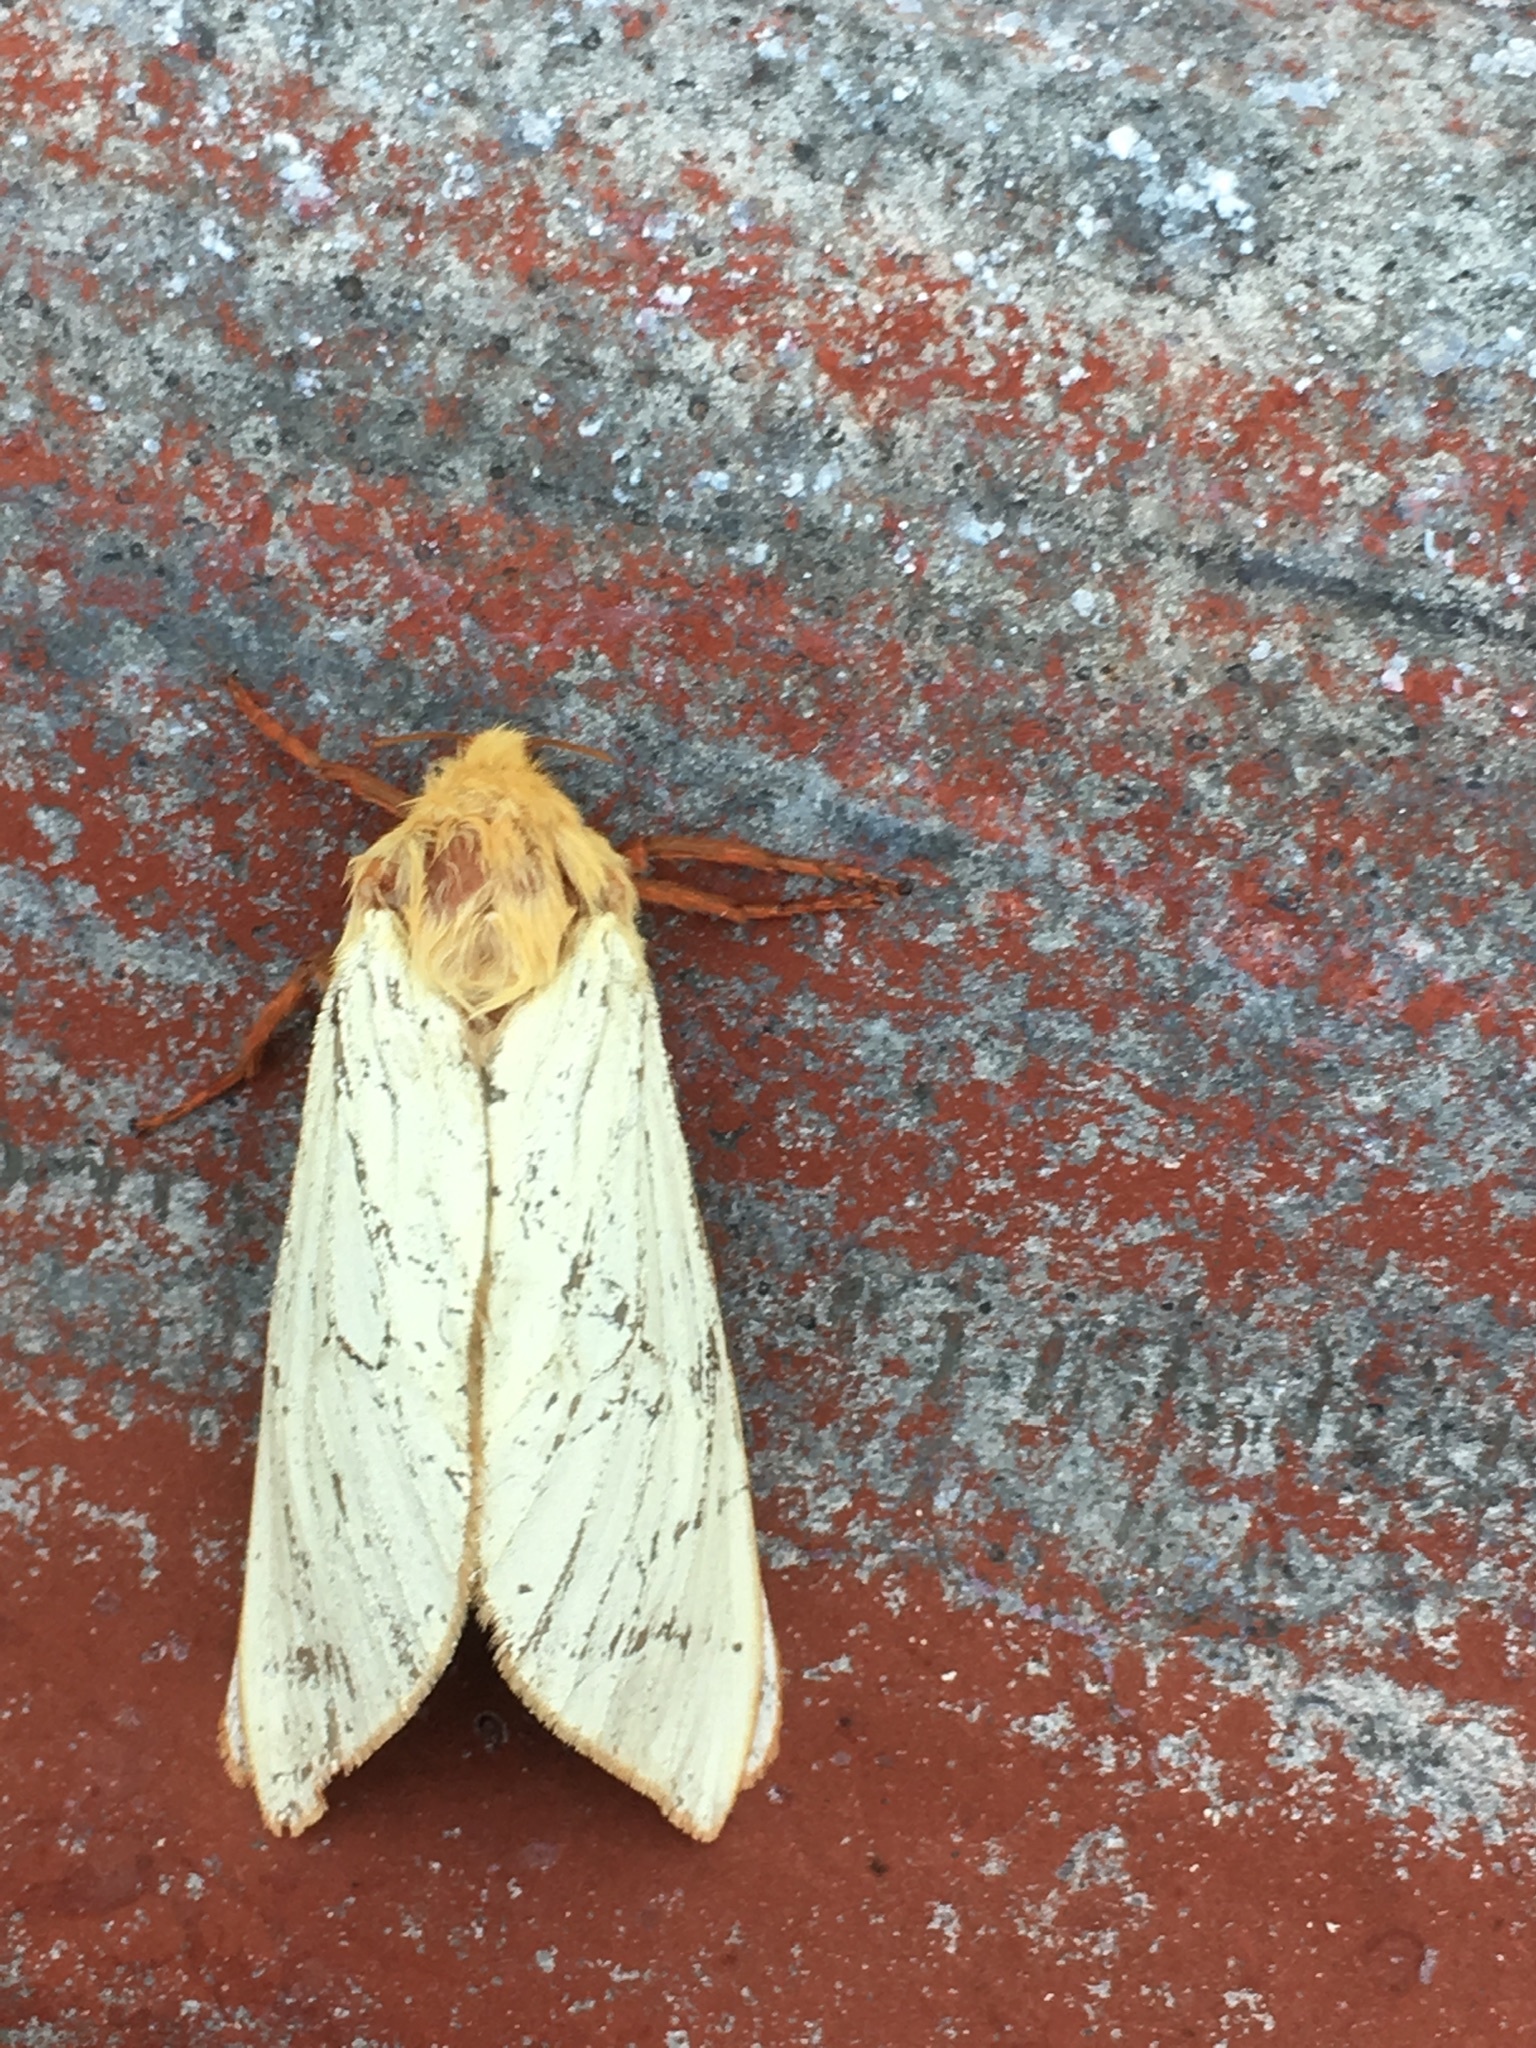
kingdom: Animalia
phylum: Arthropoda
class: Insecta
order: Lepidoptera
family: Hepialidae
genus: Hepialus
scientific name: Hepialus humuli
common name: Ghost moth
